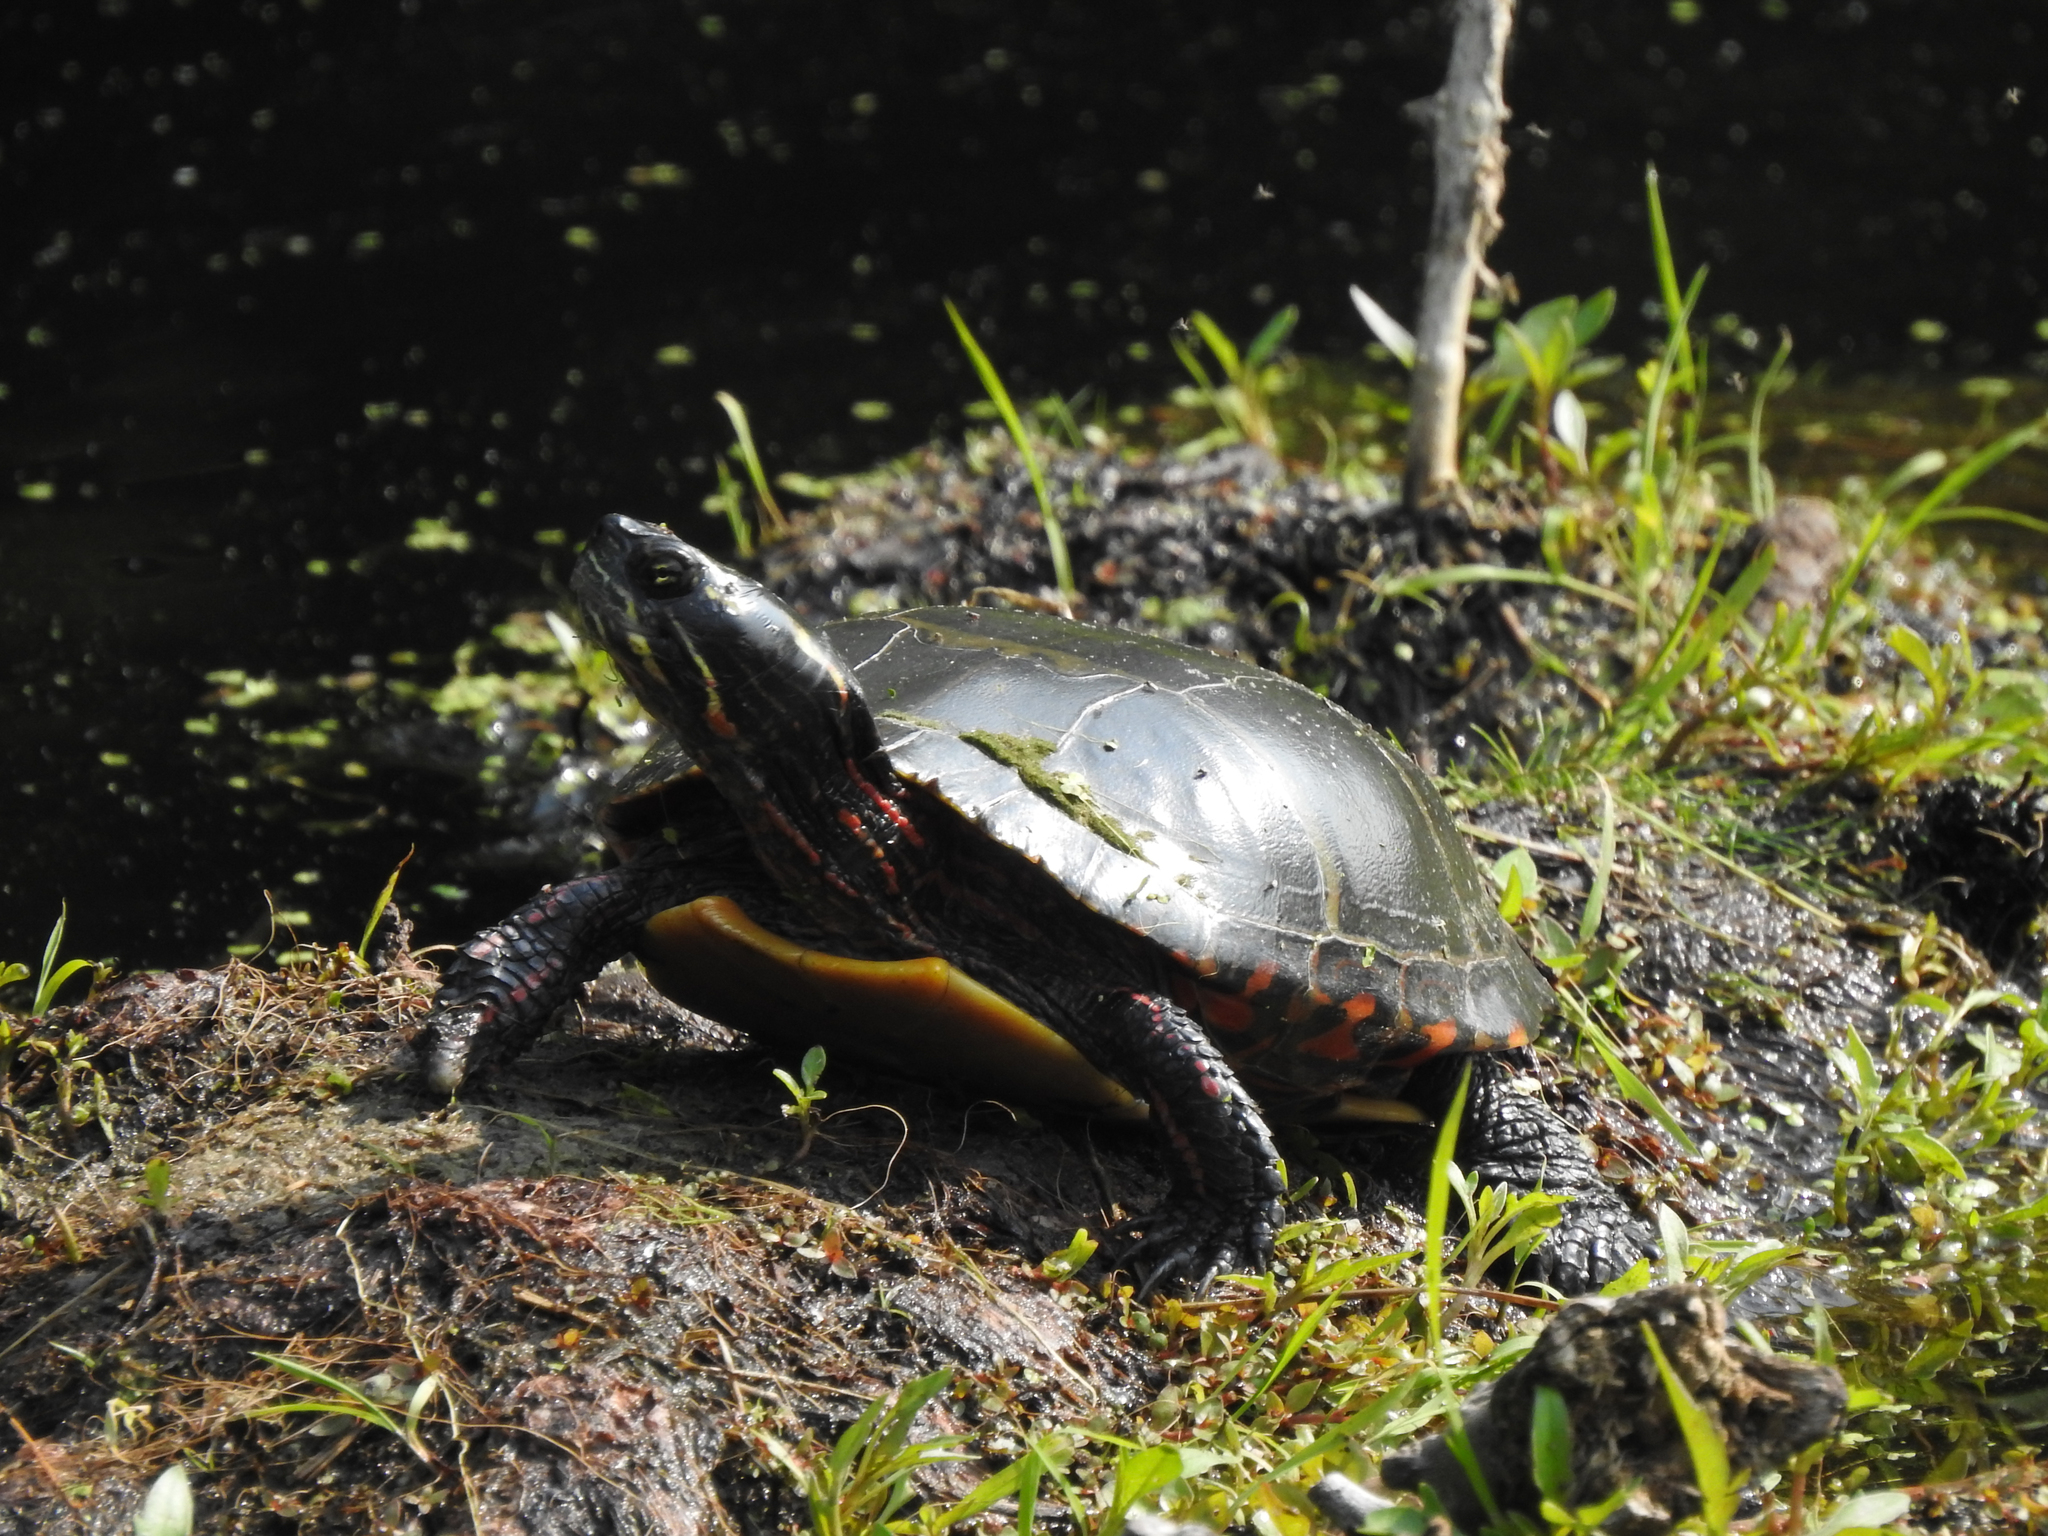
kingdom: Animalia
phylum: Chordata
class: Testudines
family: Emydidae
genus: Chrysemys
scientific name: Chrysemys picta
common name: Painted turtle
